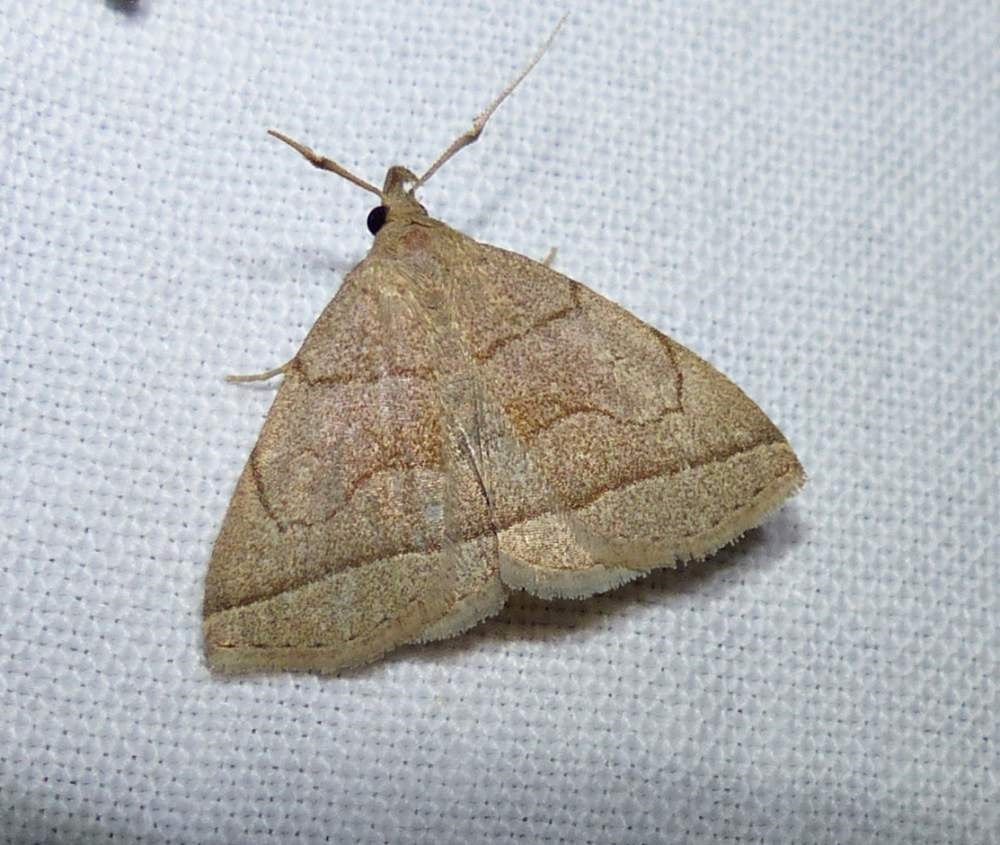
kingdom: Animalia
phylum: Arthropoda
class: Insecta
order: Lepidoptera
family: Erebidae
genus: Zanclognatha
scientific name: Zanclognatha cruralis
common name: Early fan-foot
